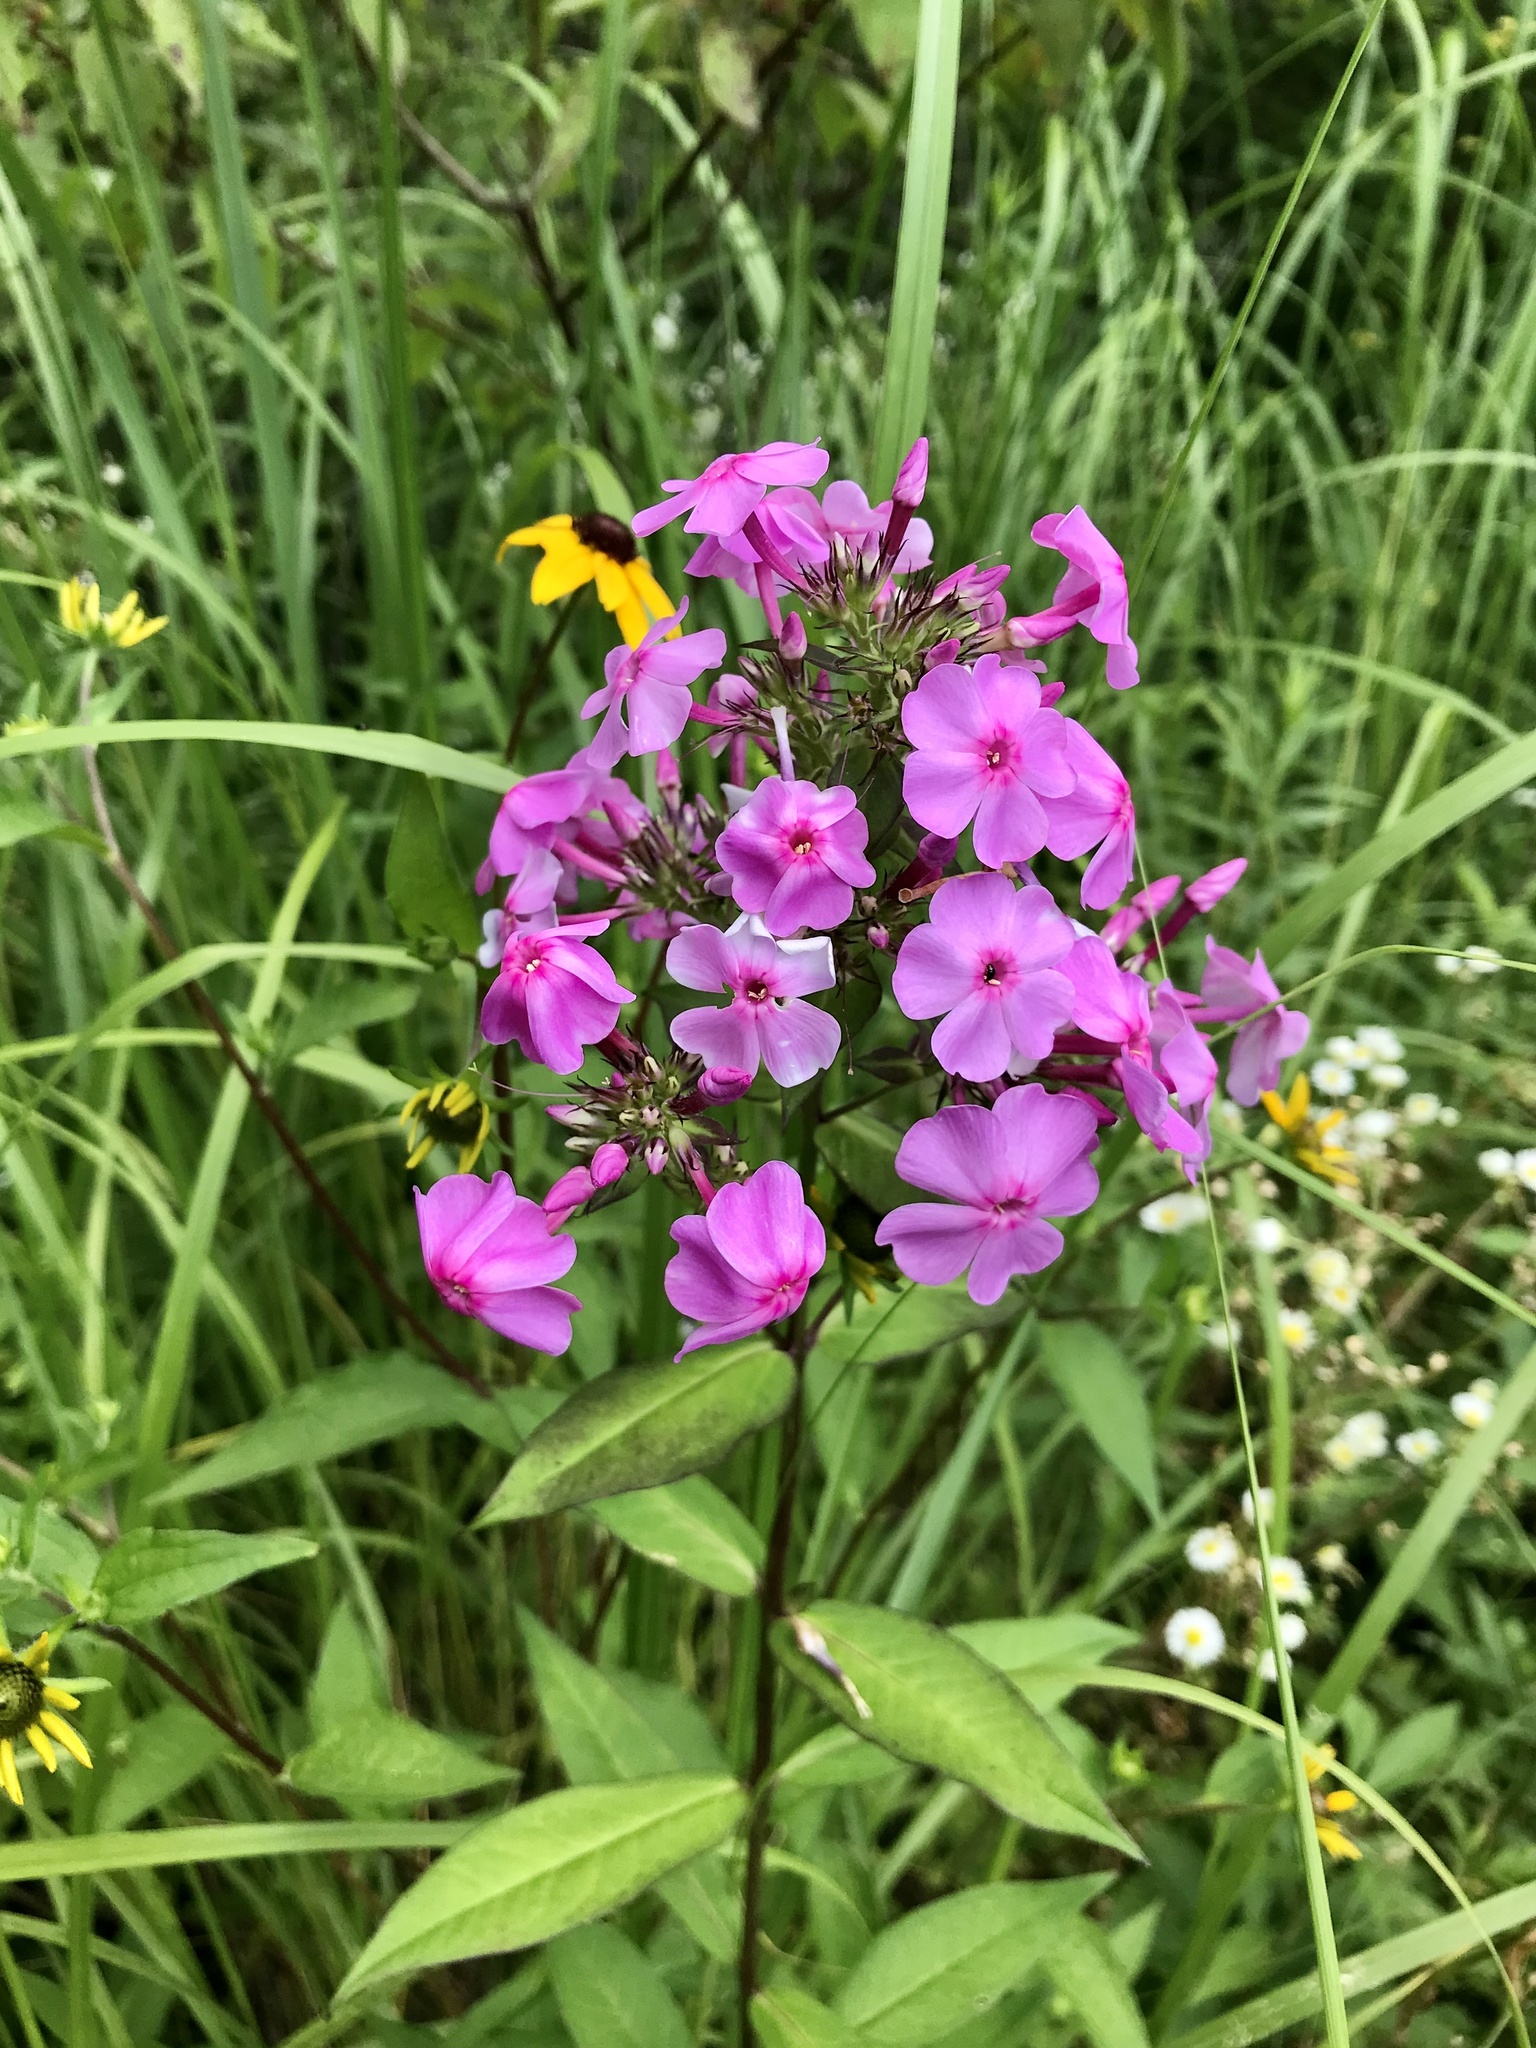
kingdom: Plantae
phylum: Tracheophyta
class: Magnoliopsida
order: Ericales
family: Polemoniaceae
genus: Phlox
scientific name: Phlox paniculata
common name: Fall phlox
